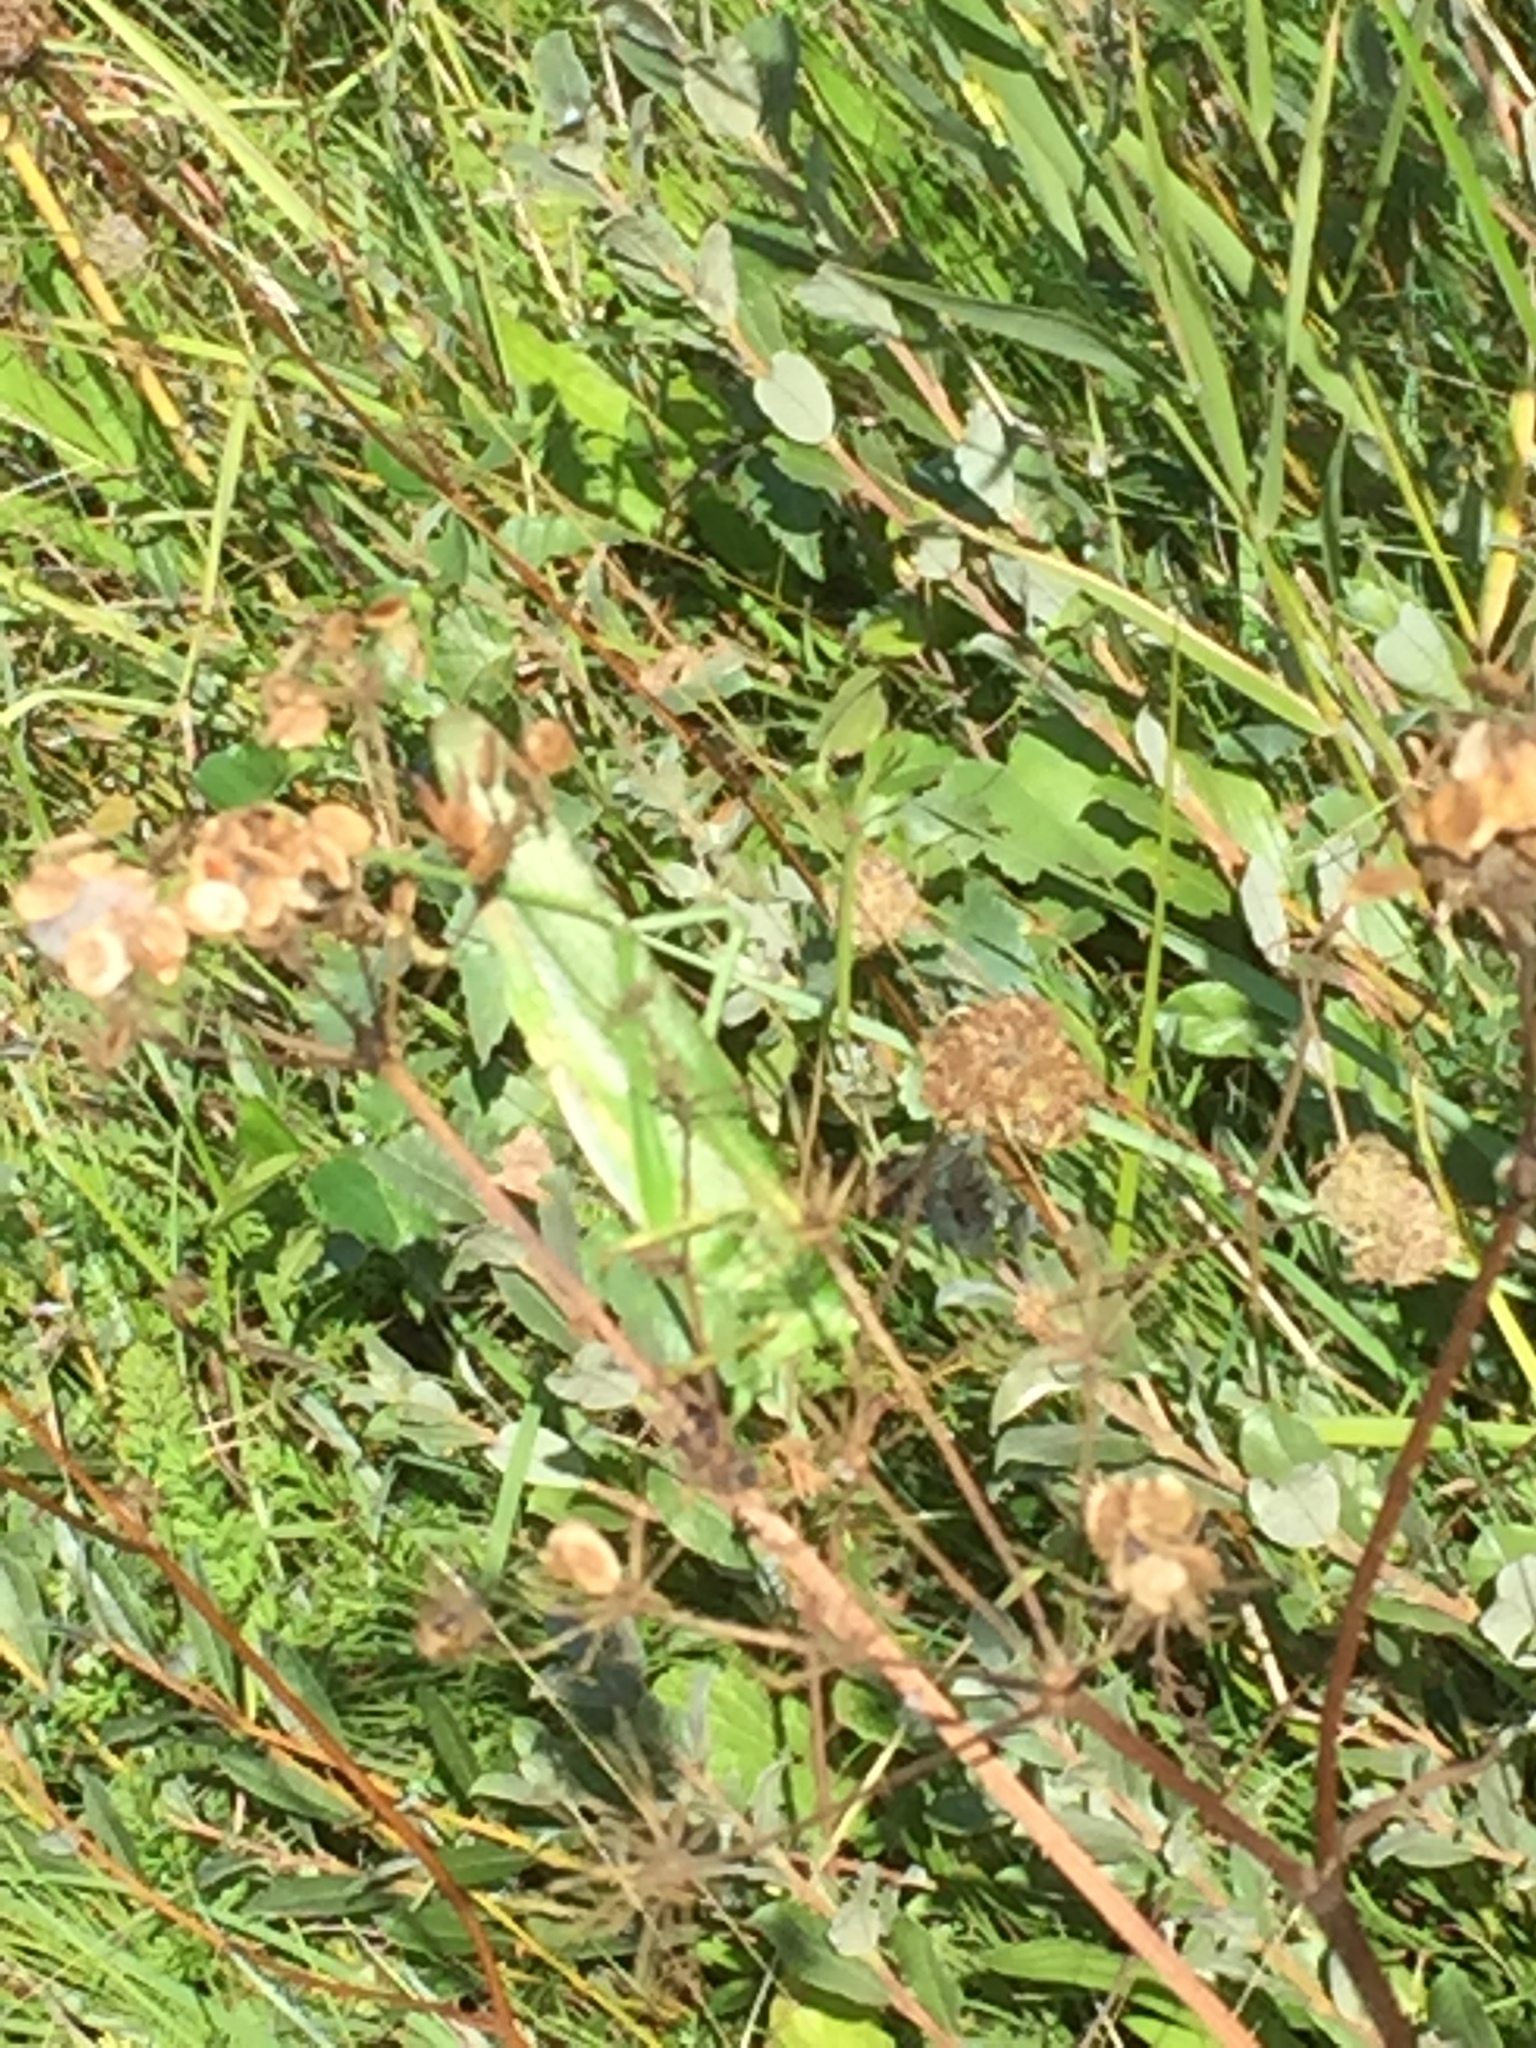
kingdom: Animalia
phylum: Arthropoda
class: Insecta
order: Orthoptera
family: Tettigoniidae
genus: Tettigonia
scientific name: Tettigonia viridissima
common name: Great green bush-cricket
